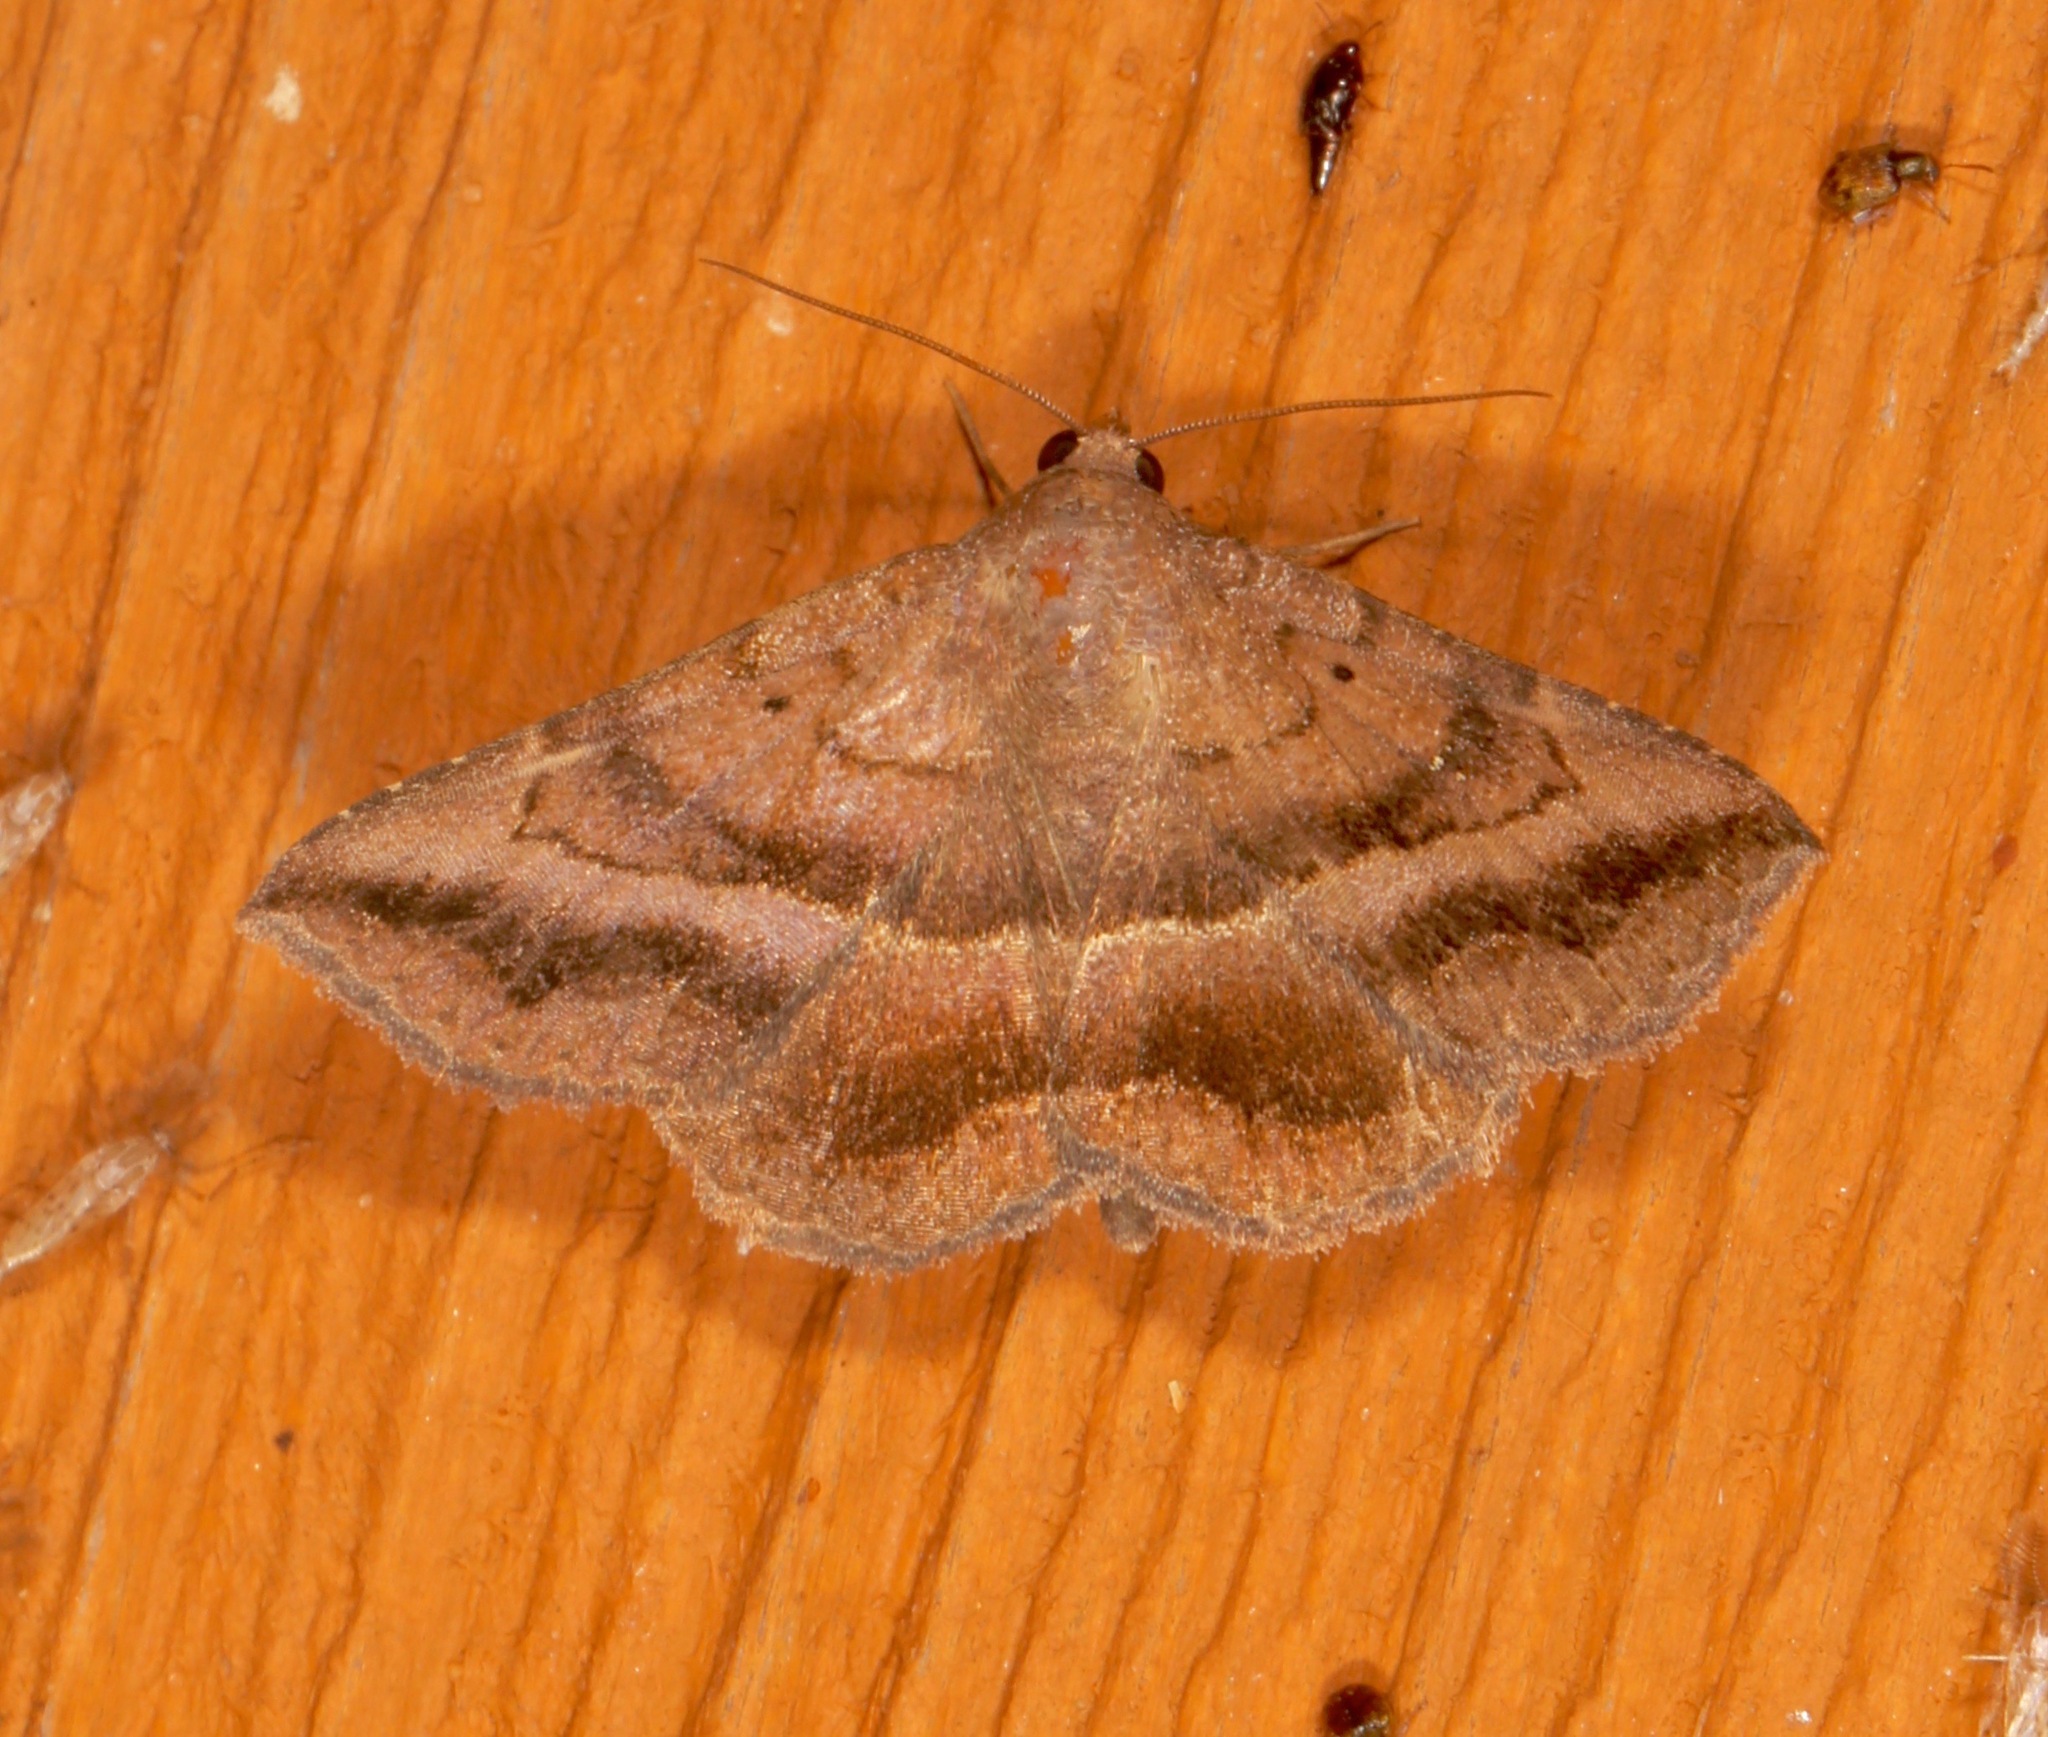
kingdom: Animalia
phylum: Arthropoda
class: Insecta
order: Lepidoptera
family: Erebidae
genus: Lesmone
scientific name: Lesmone detrahens
